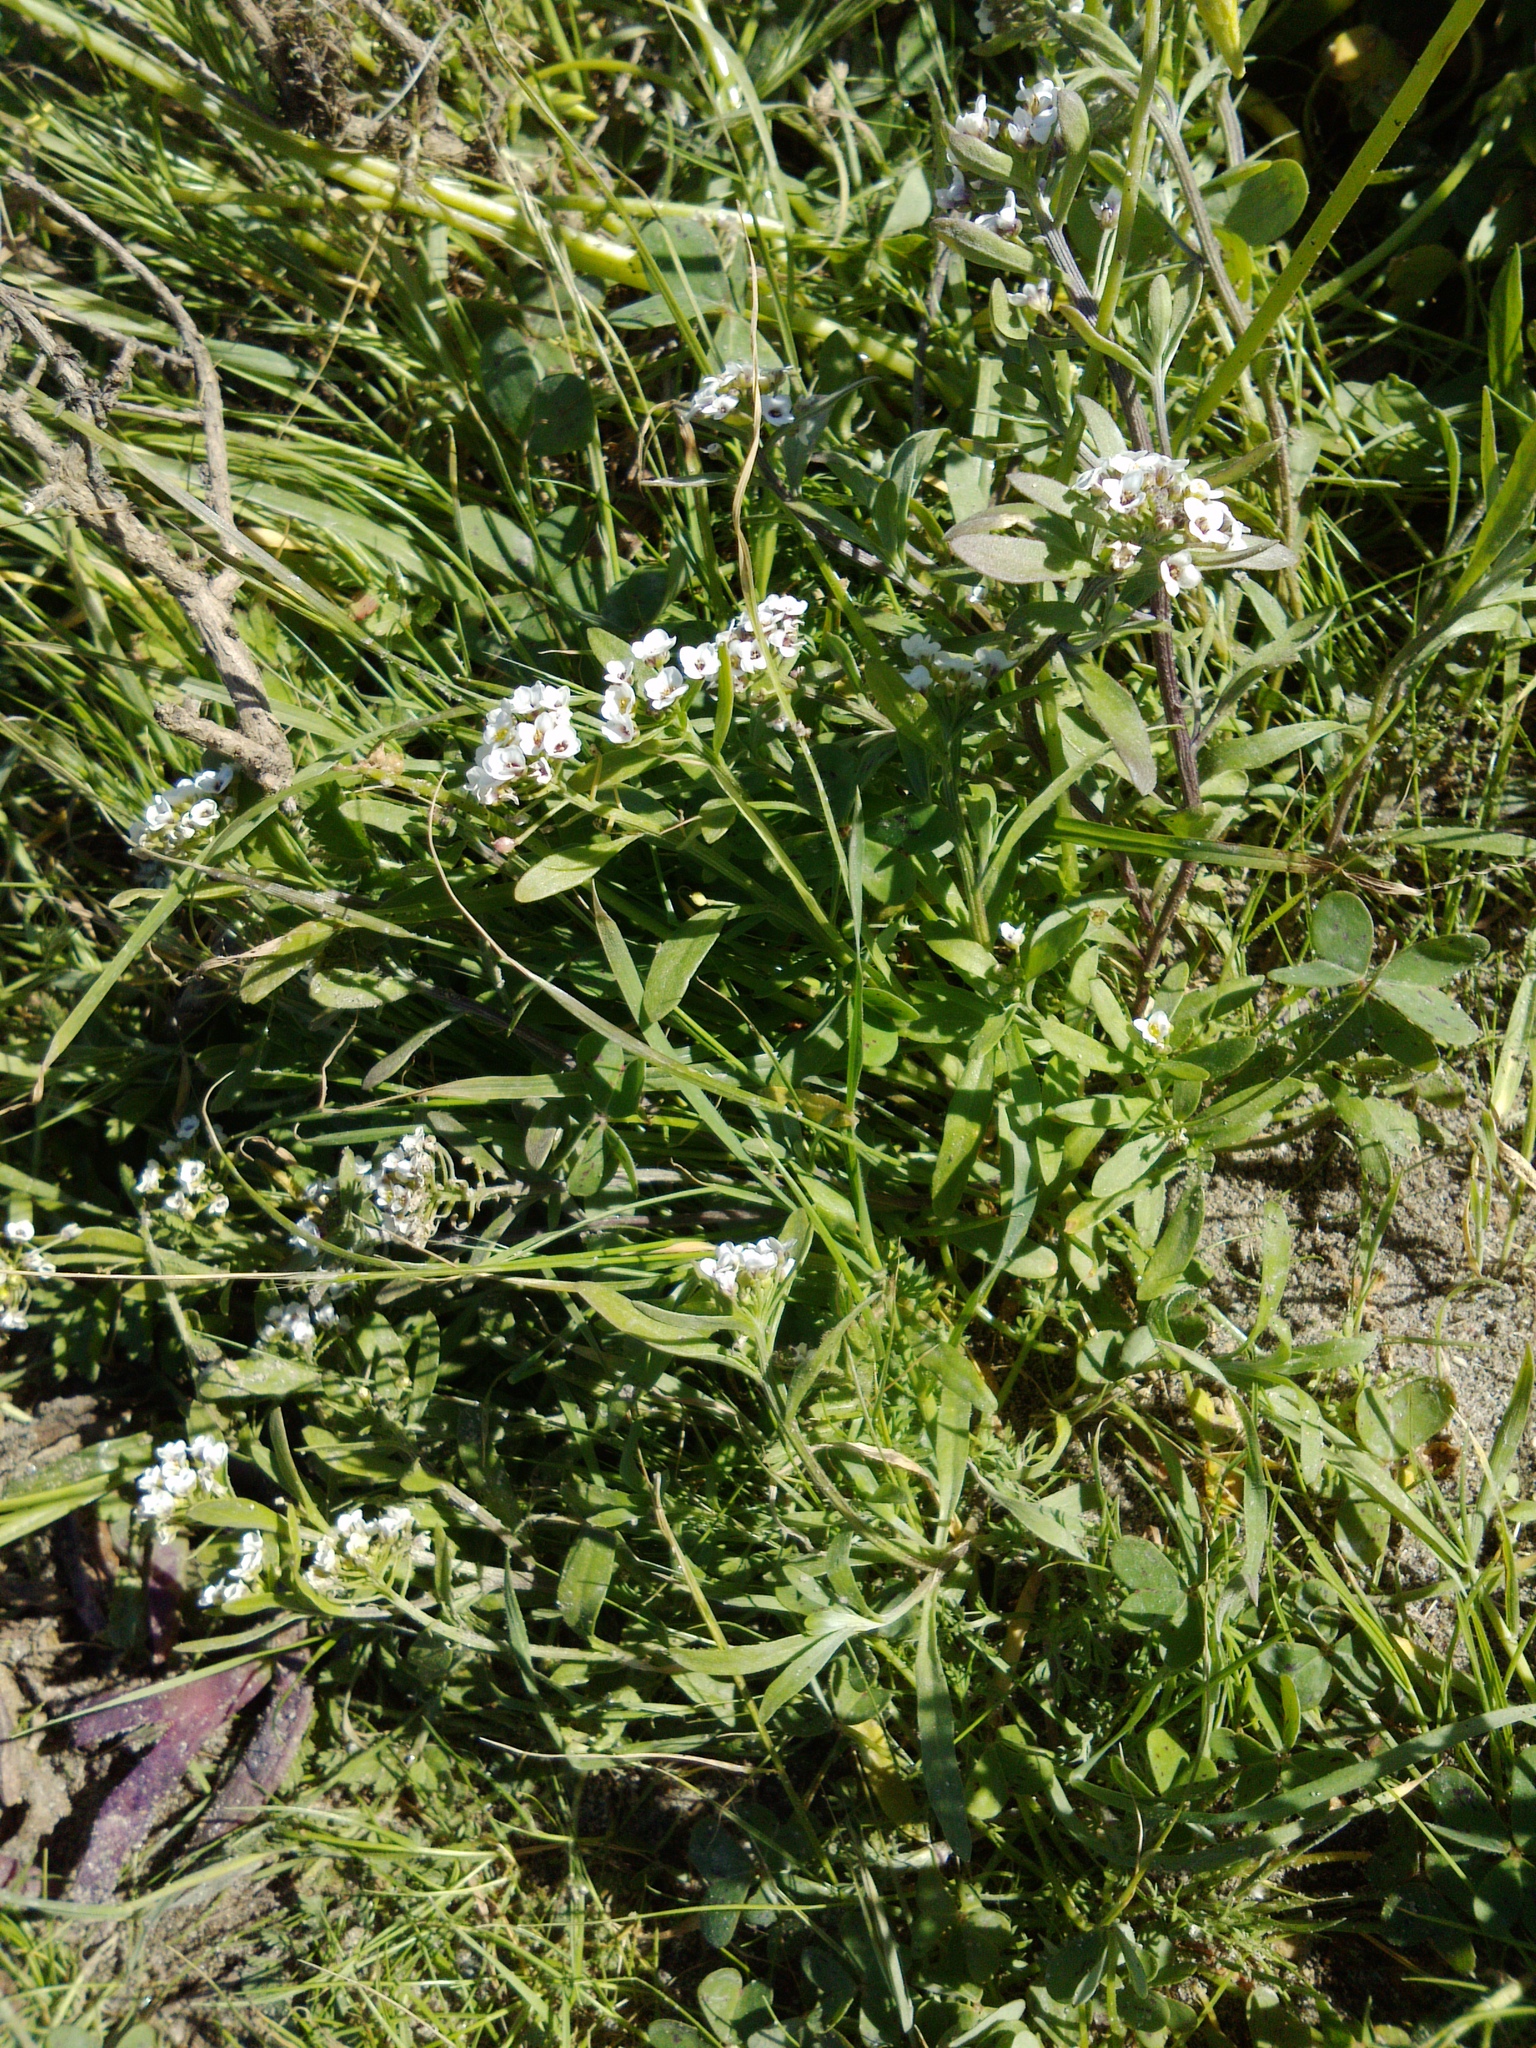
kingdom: Plantae
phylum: Tracheophyta
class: Magnoliopsida
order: Brassicales
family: Brassicaceae
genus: Lobularia
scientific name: Lobularia maritima
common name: Sweet alison
